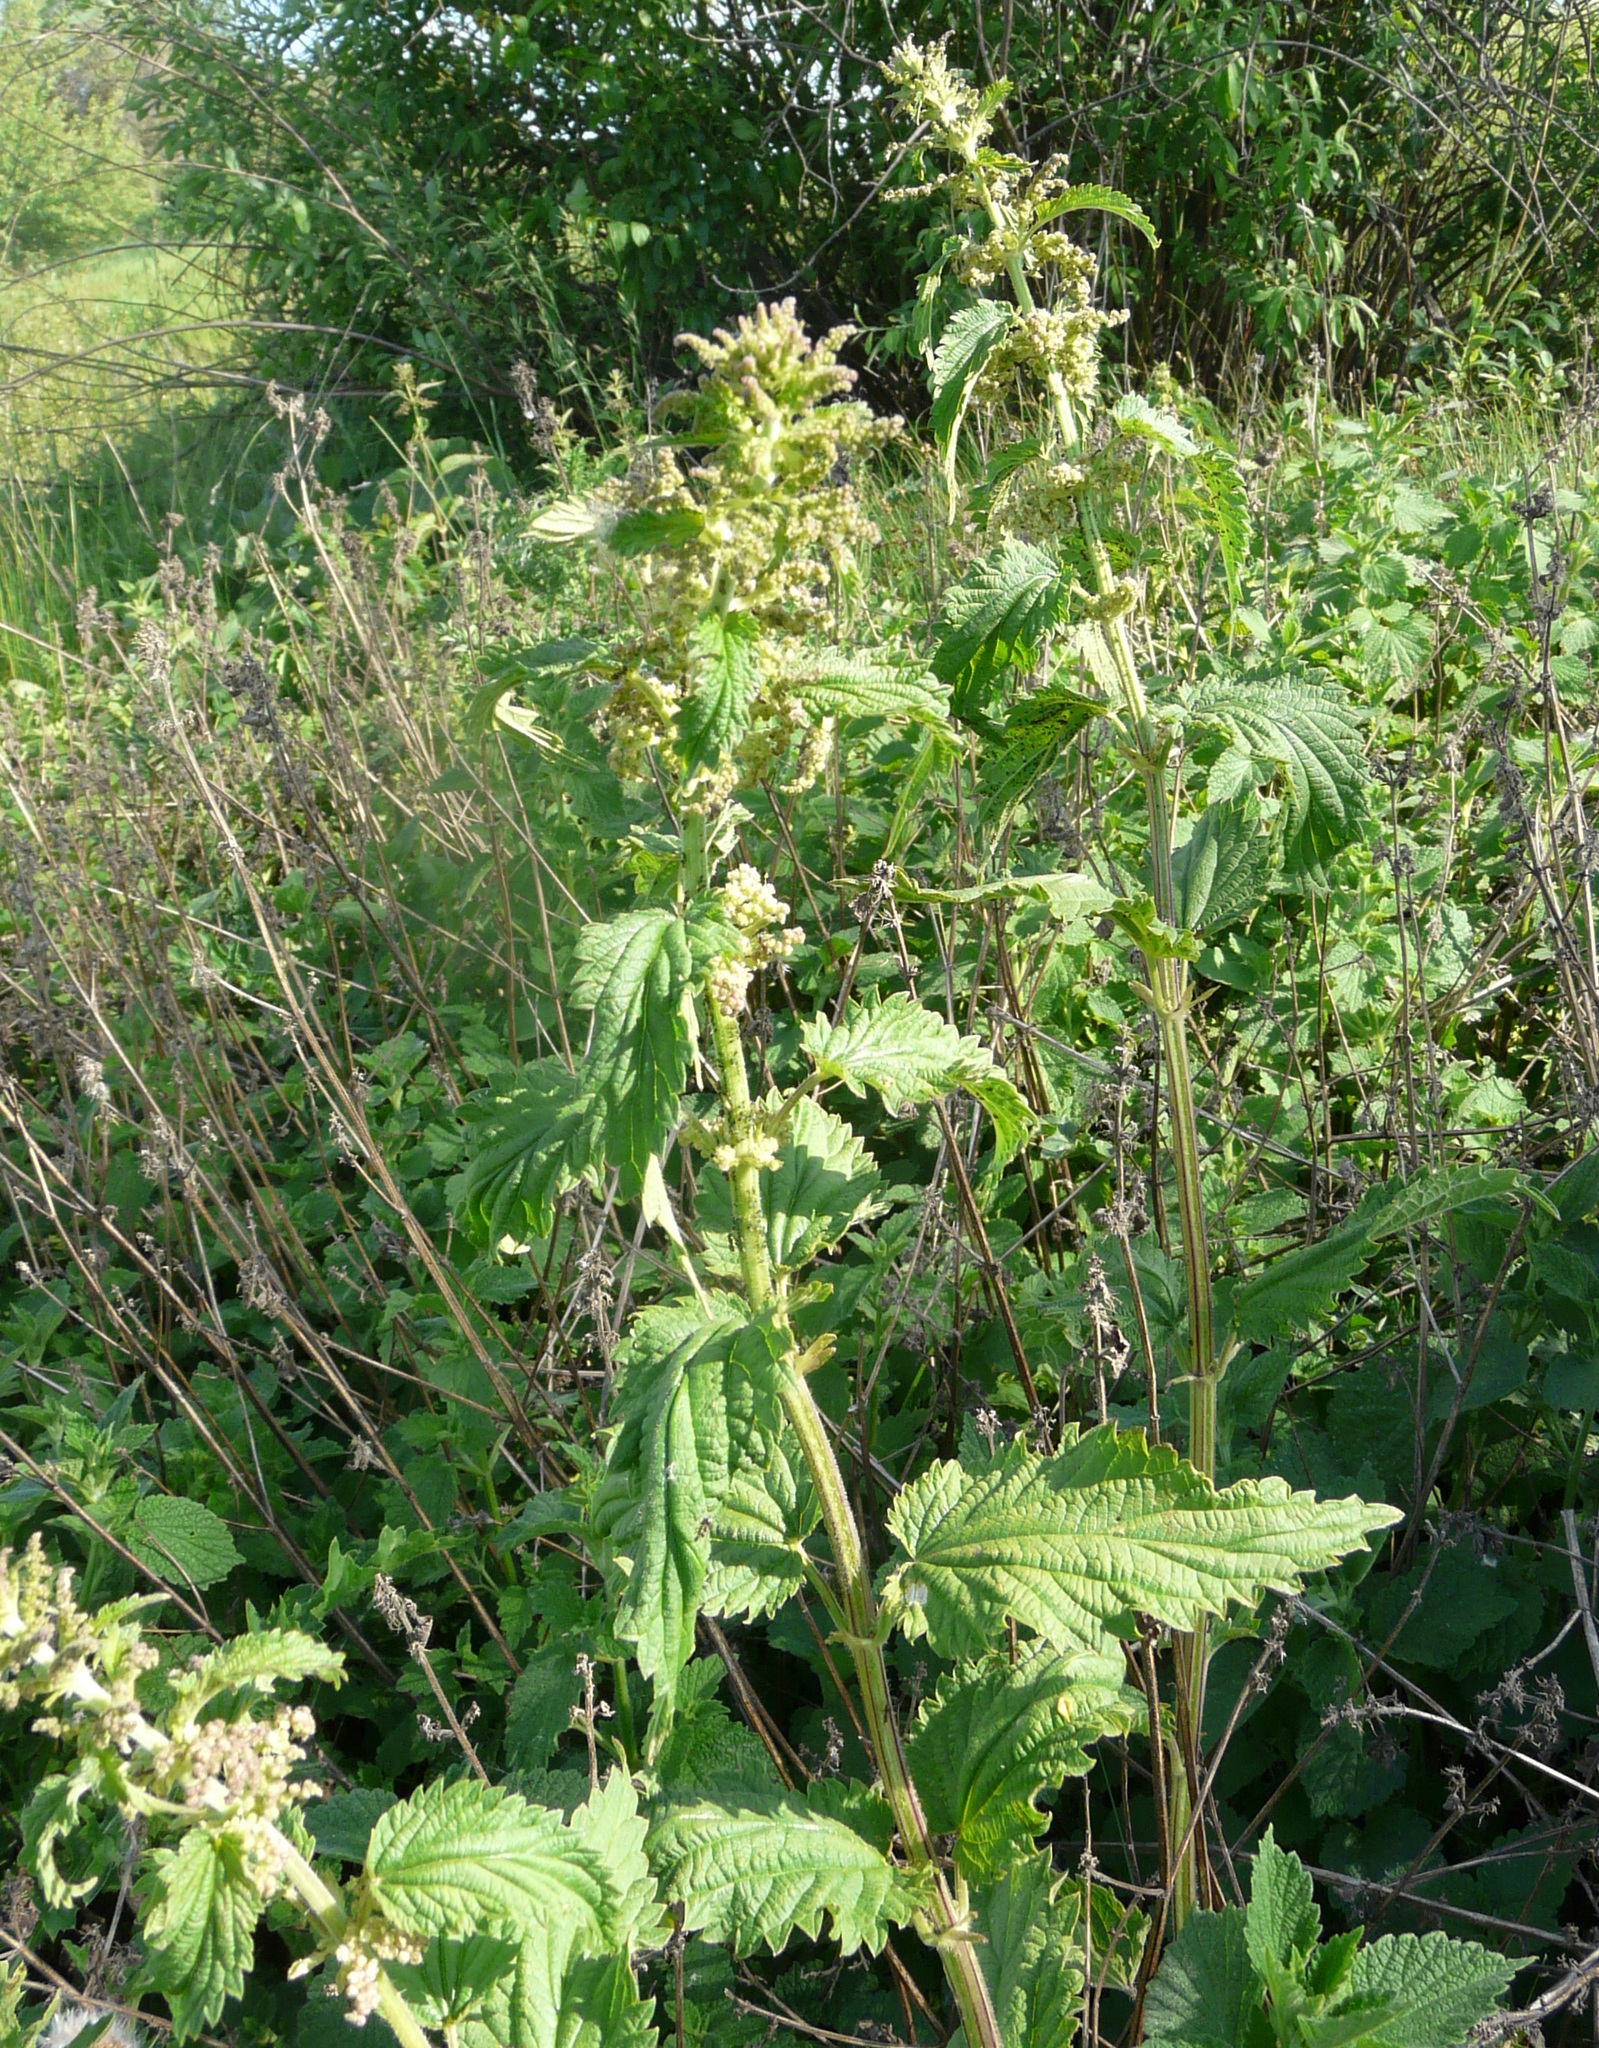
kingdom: Plantae
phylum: Tracheophyta
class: Magnoliopsida
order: Rosales
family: Urticaceae
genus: Urtica
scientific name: Urtica dioica
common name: Common nettle
